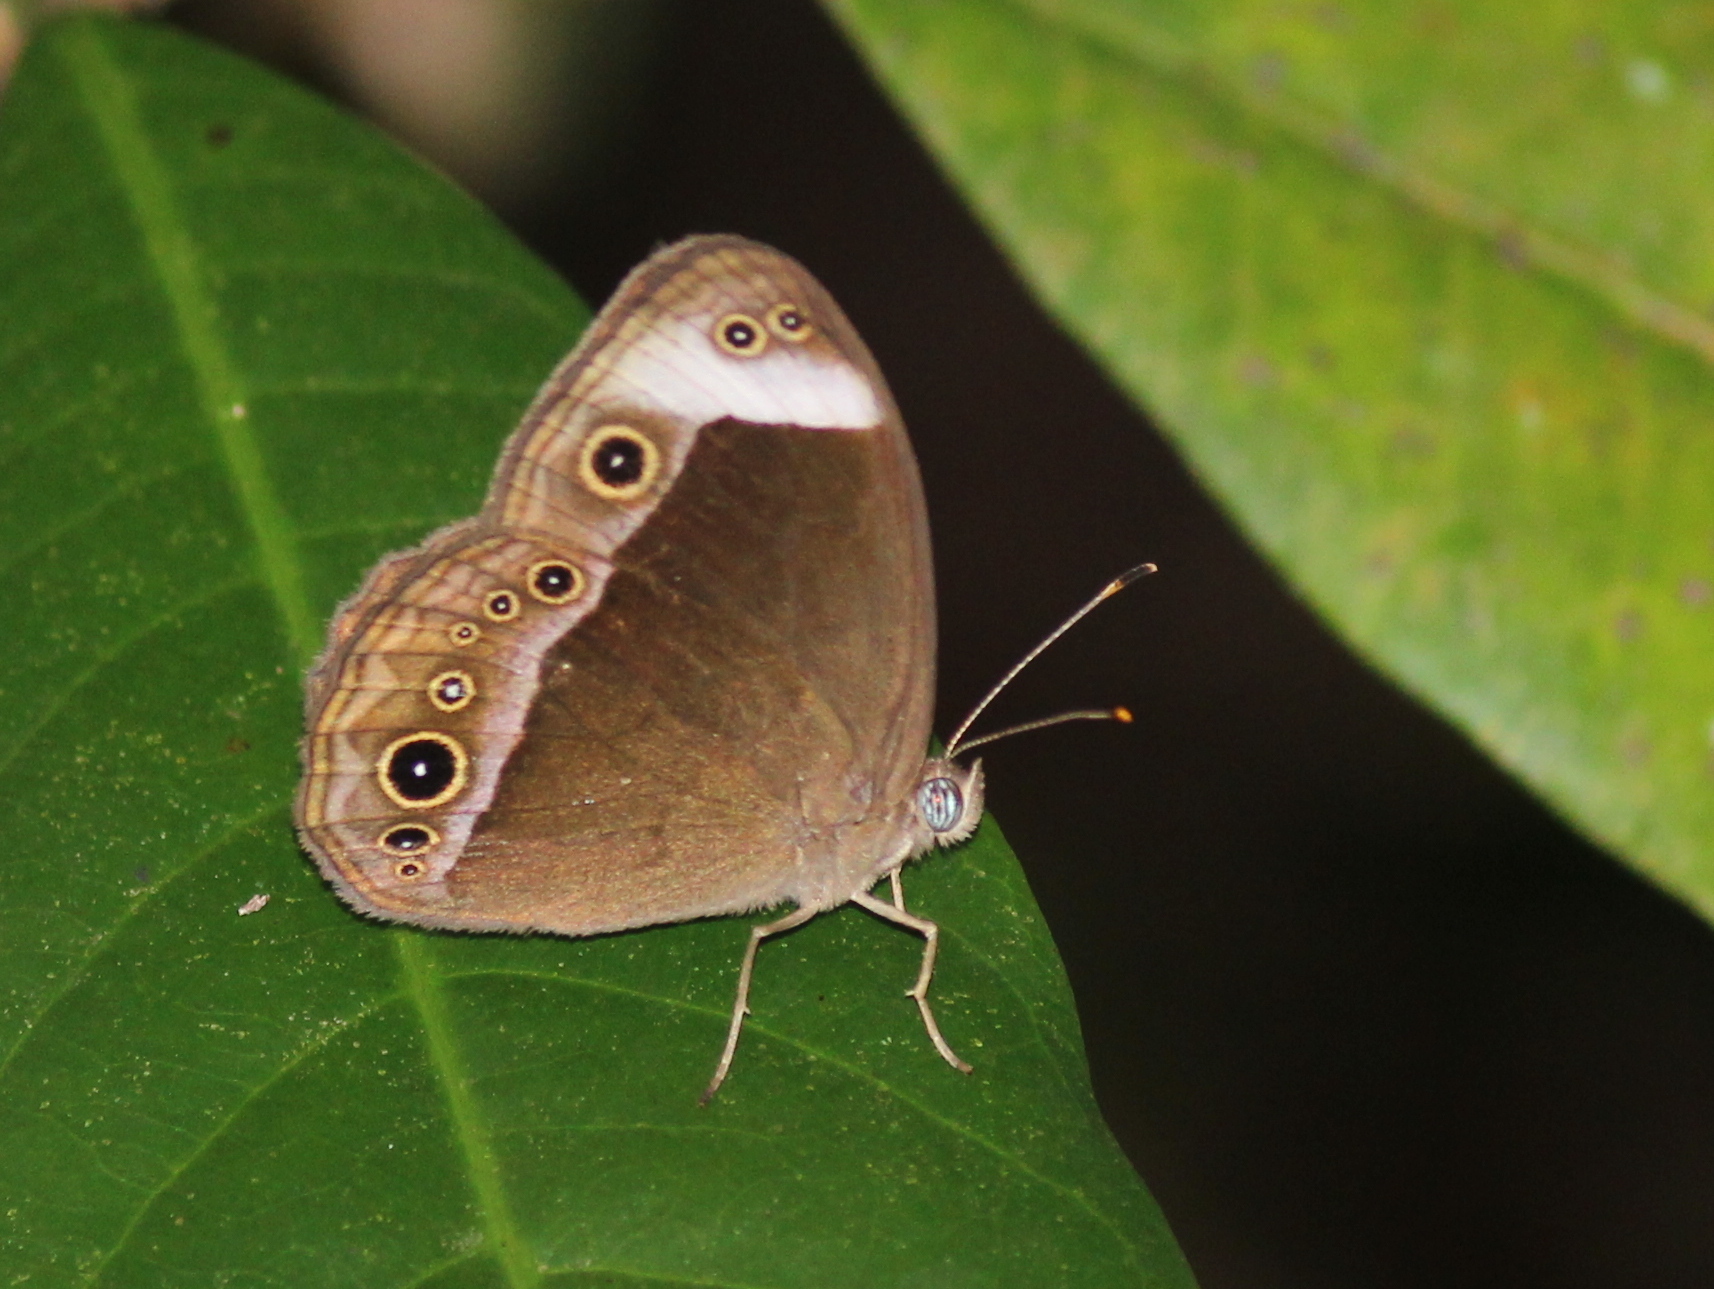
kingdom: Animalia
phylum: Arthropoda
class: Insecta
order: Lepidoptera
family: Nymphalidae
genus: Mycalesis
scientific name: Mycalesis anaxias
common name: White-bar bushbrown
